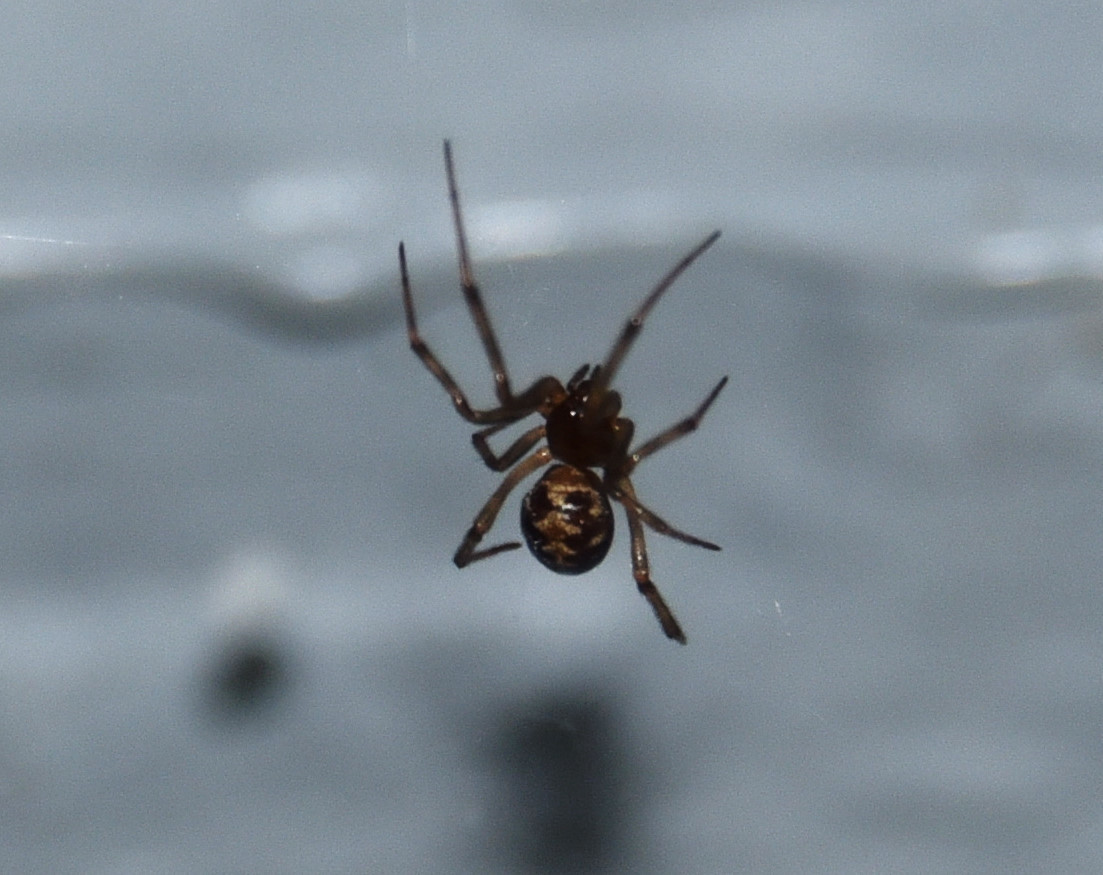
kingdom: Animalia
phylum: Arthropoda
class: Arachnida
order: Araneae
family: Theridiidae
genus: Steatoda
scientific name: Steatoda triangulosa
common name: Triangulate bud spider
